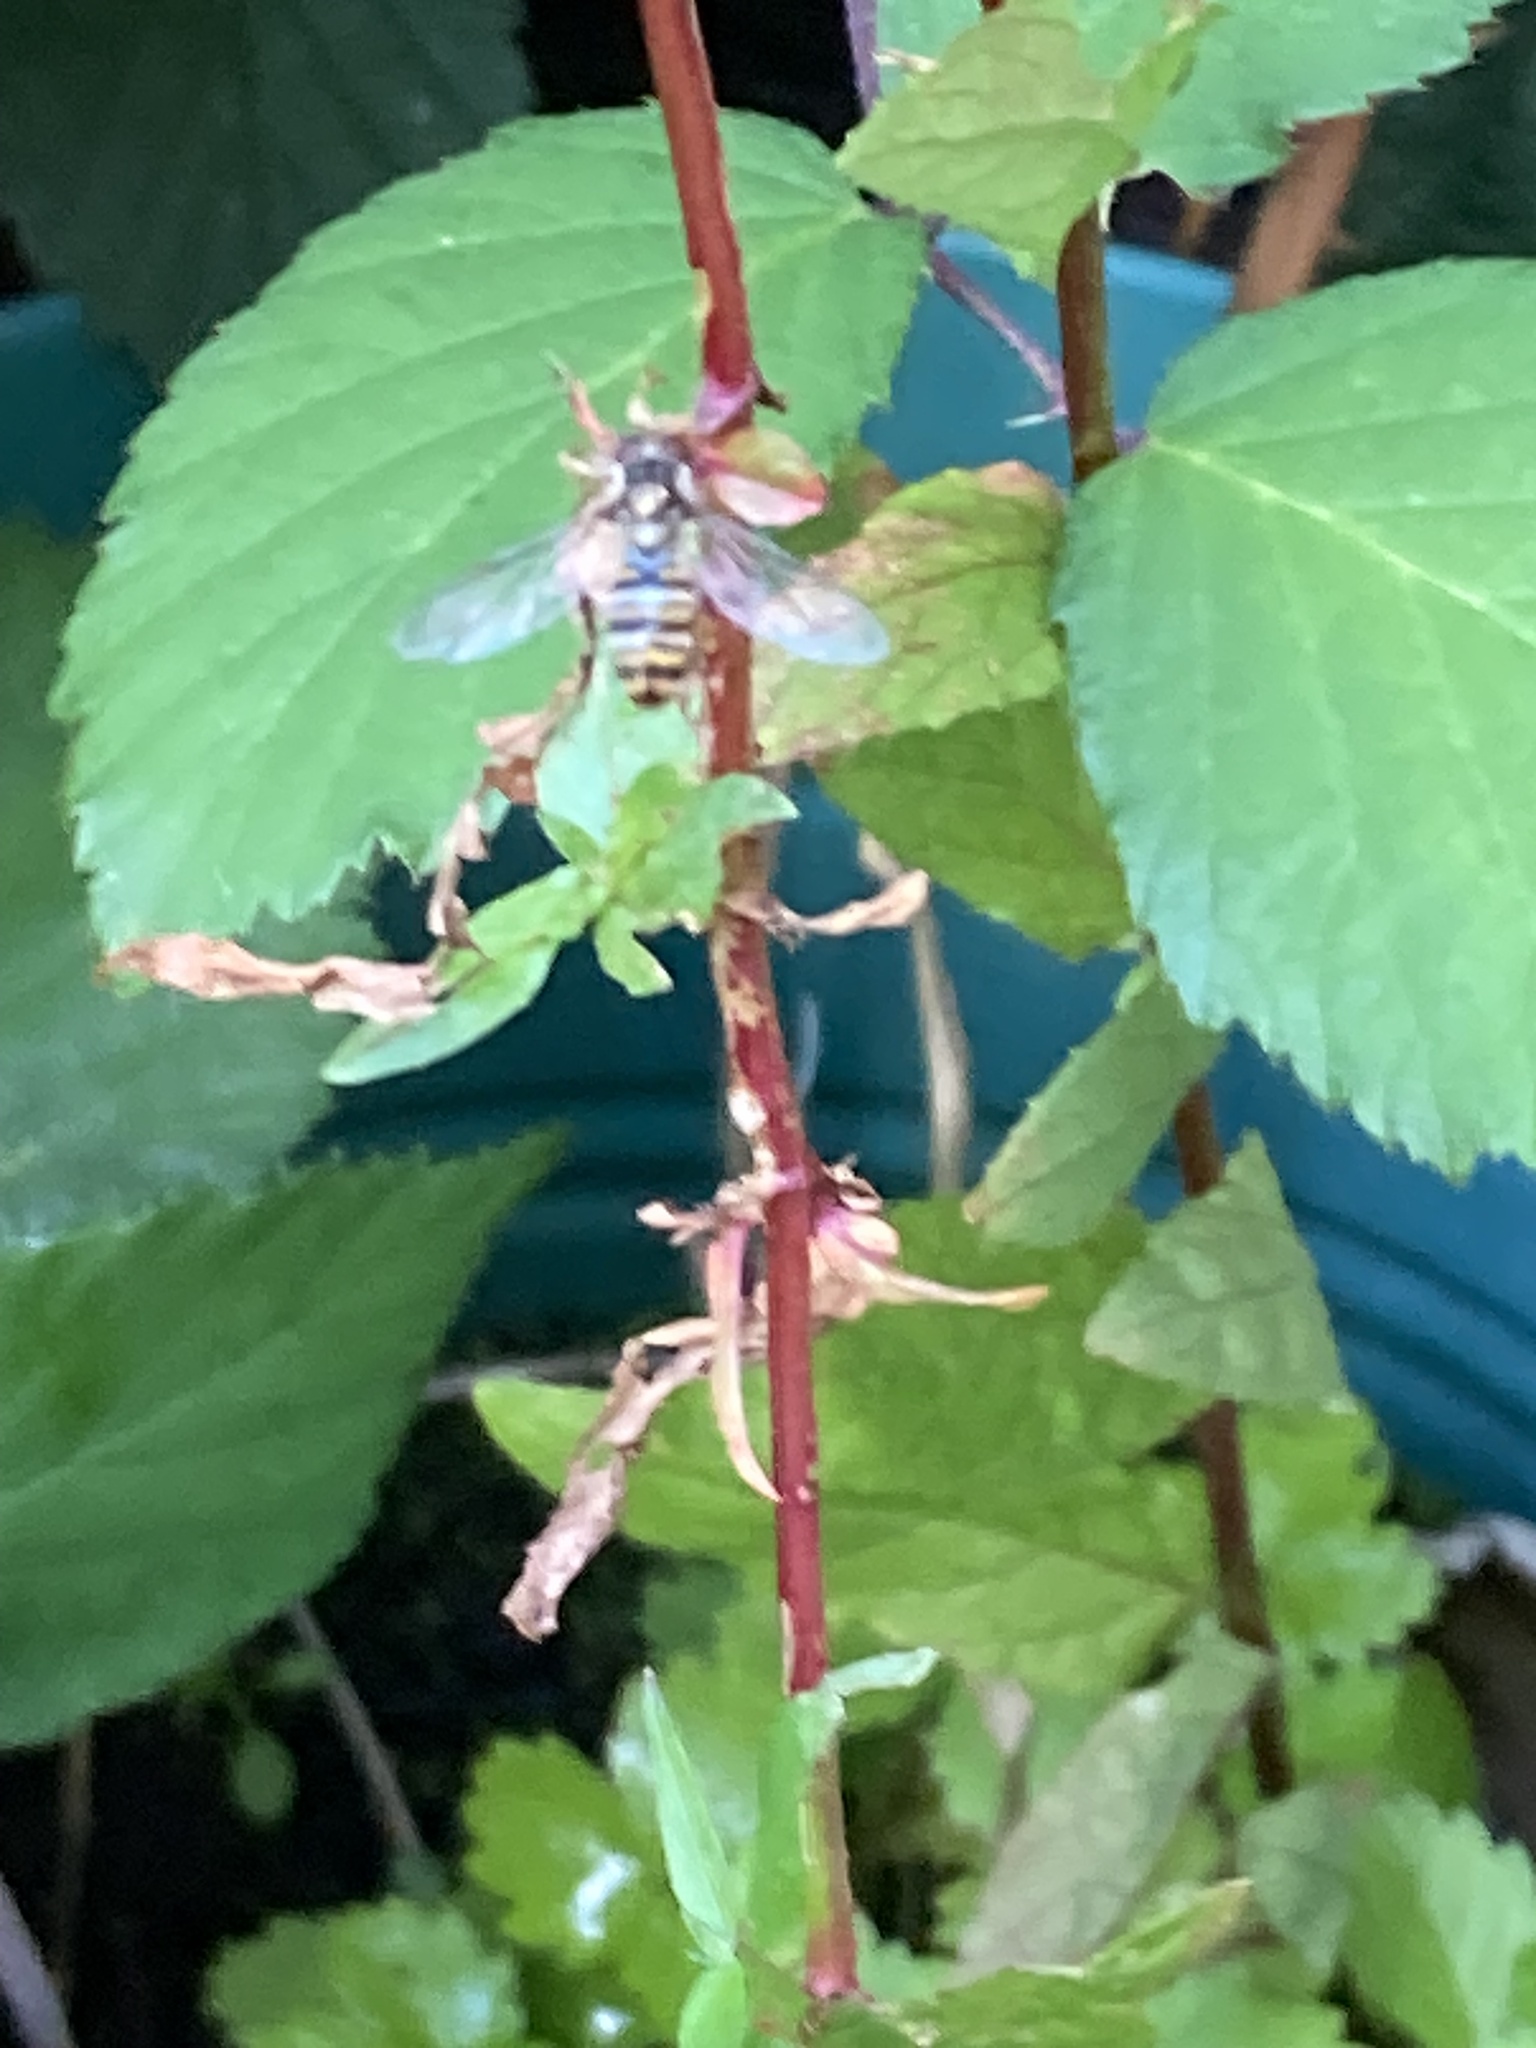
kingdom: Animalia
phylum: Arthropoda
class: Insecta
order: Diptera
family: Syrphidae
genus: Episyrphus
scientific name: Episyrphus balteatus
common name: Marmalade hoverfly
